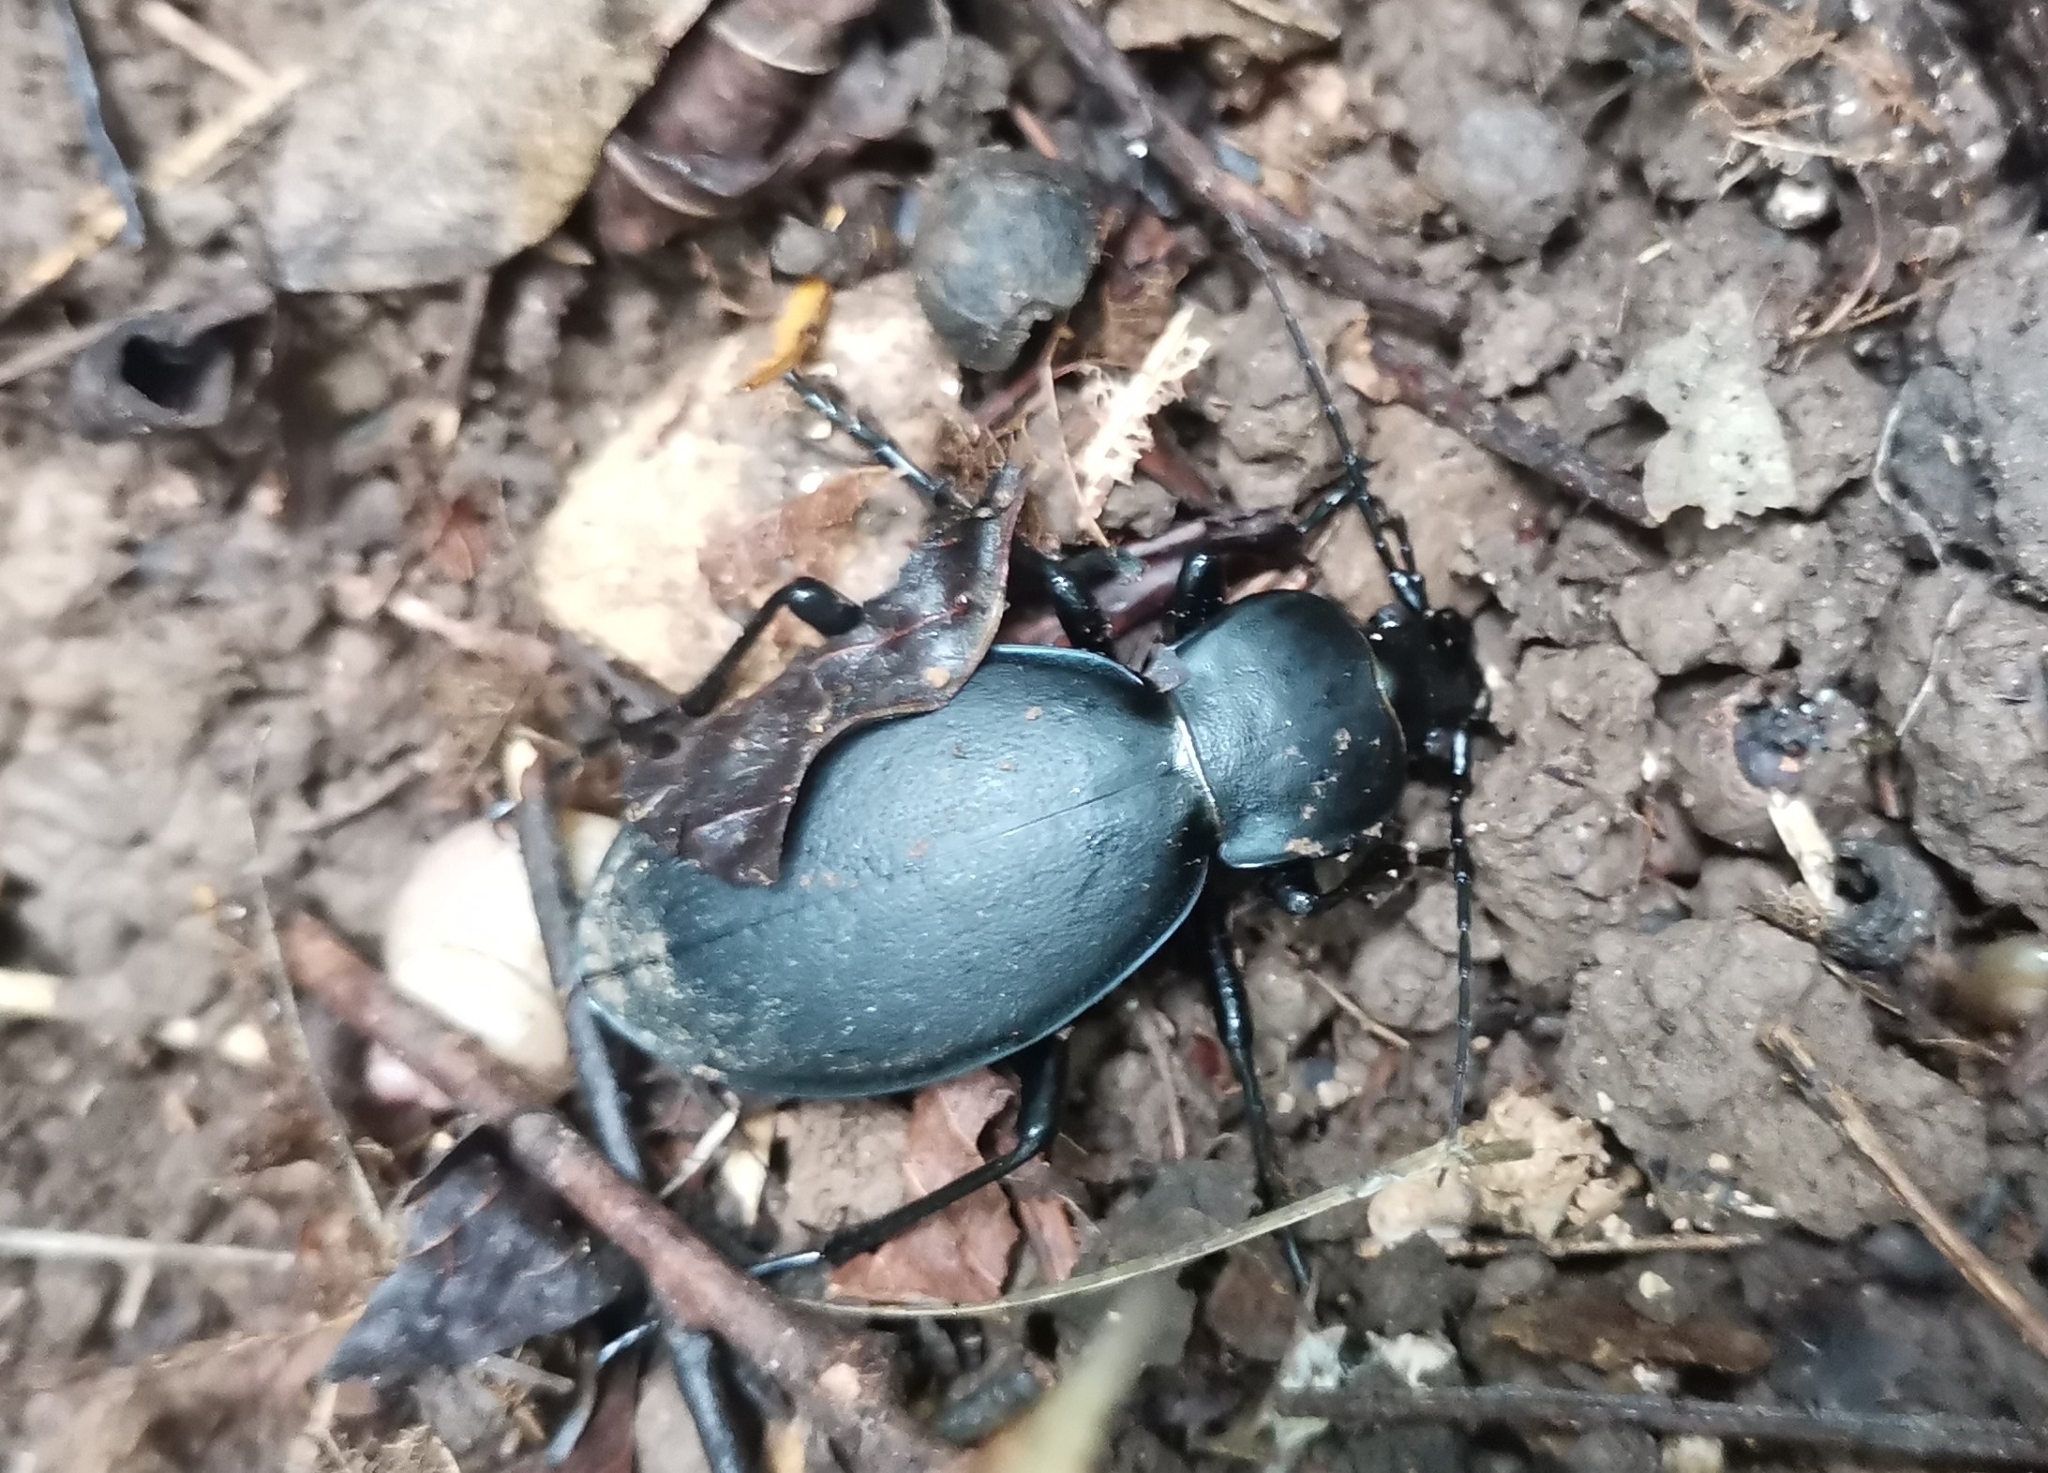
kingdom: Animalia
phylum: Arthropoda
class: Insecta
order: Coleoptera
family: Carabidae
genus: Carabus
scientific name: Carabus coriaceus
